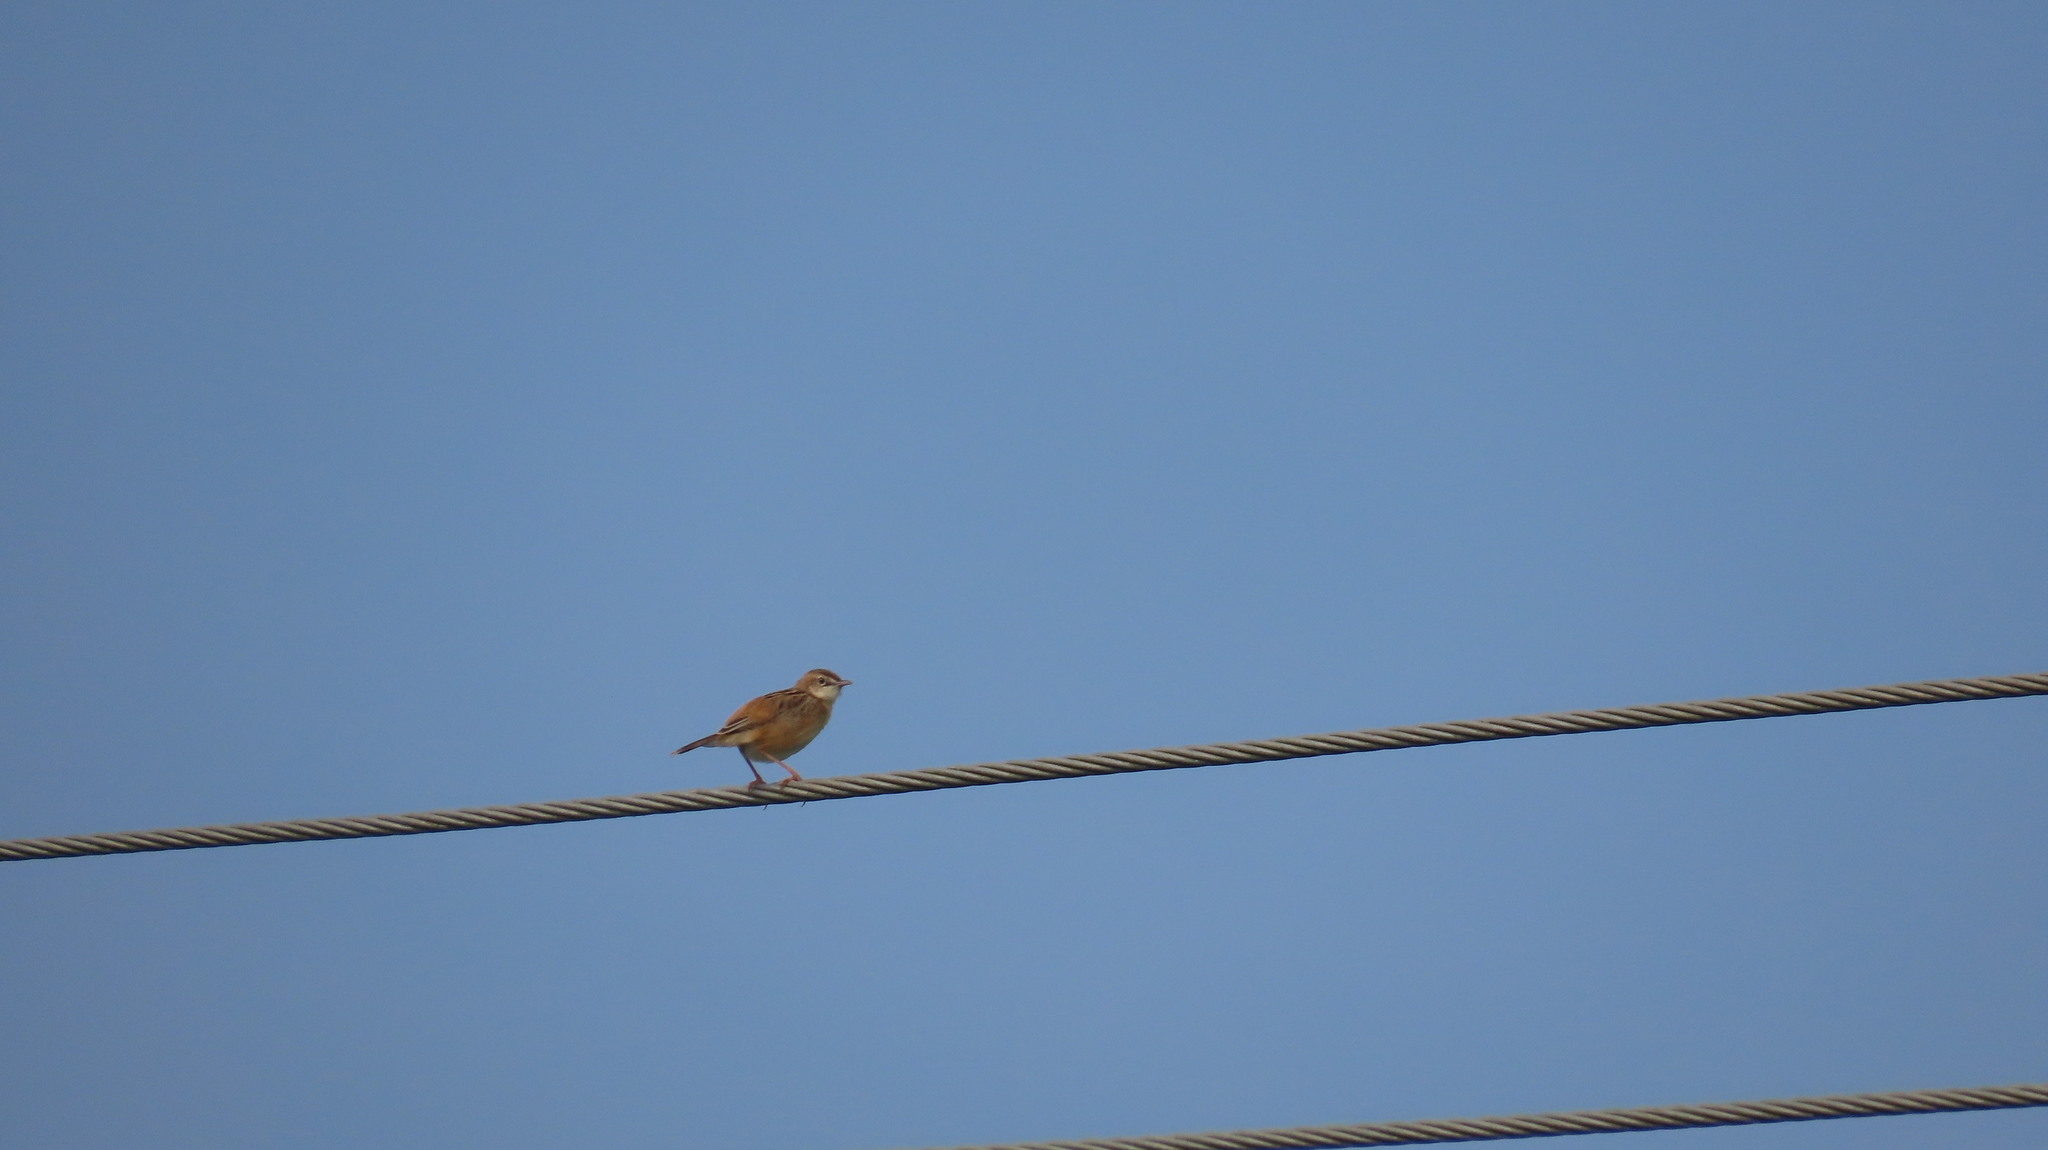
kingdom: Animalia
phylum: Chordata
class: Aves
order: Passeriformes
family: Cisticolidae
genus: Cisticola
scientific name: Cisticola juncidis
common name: Zitting cisticola
